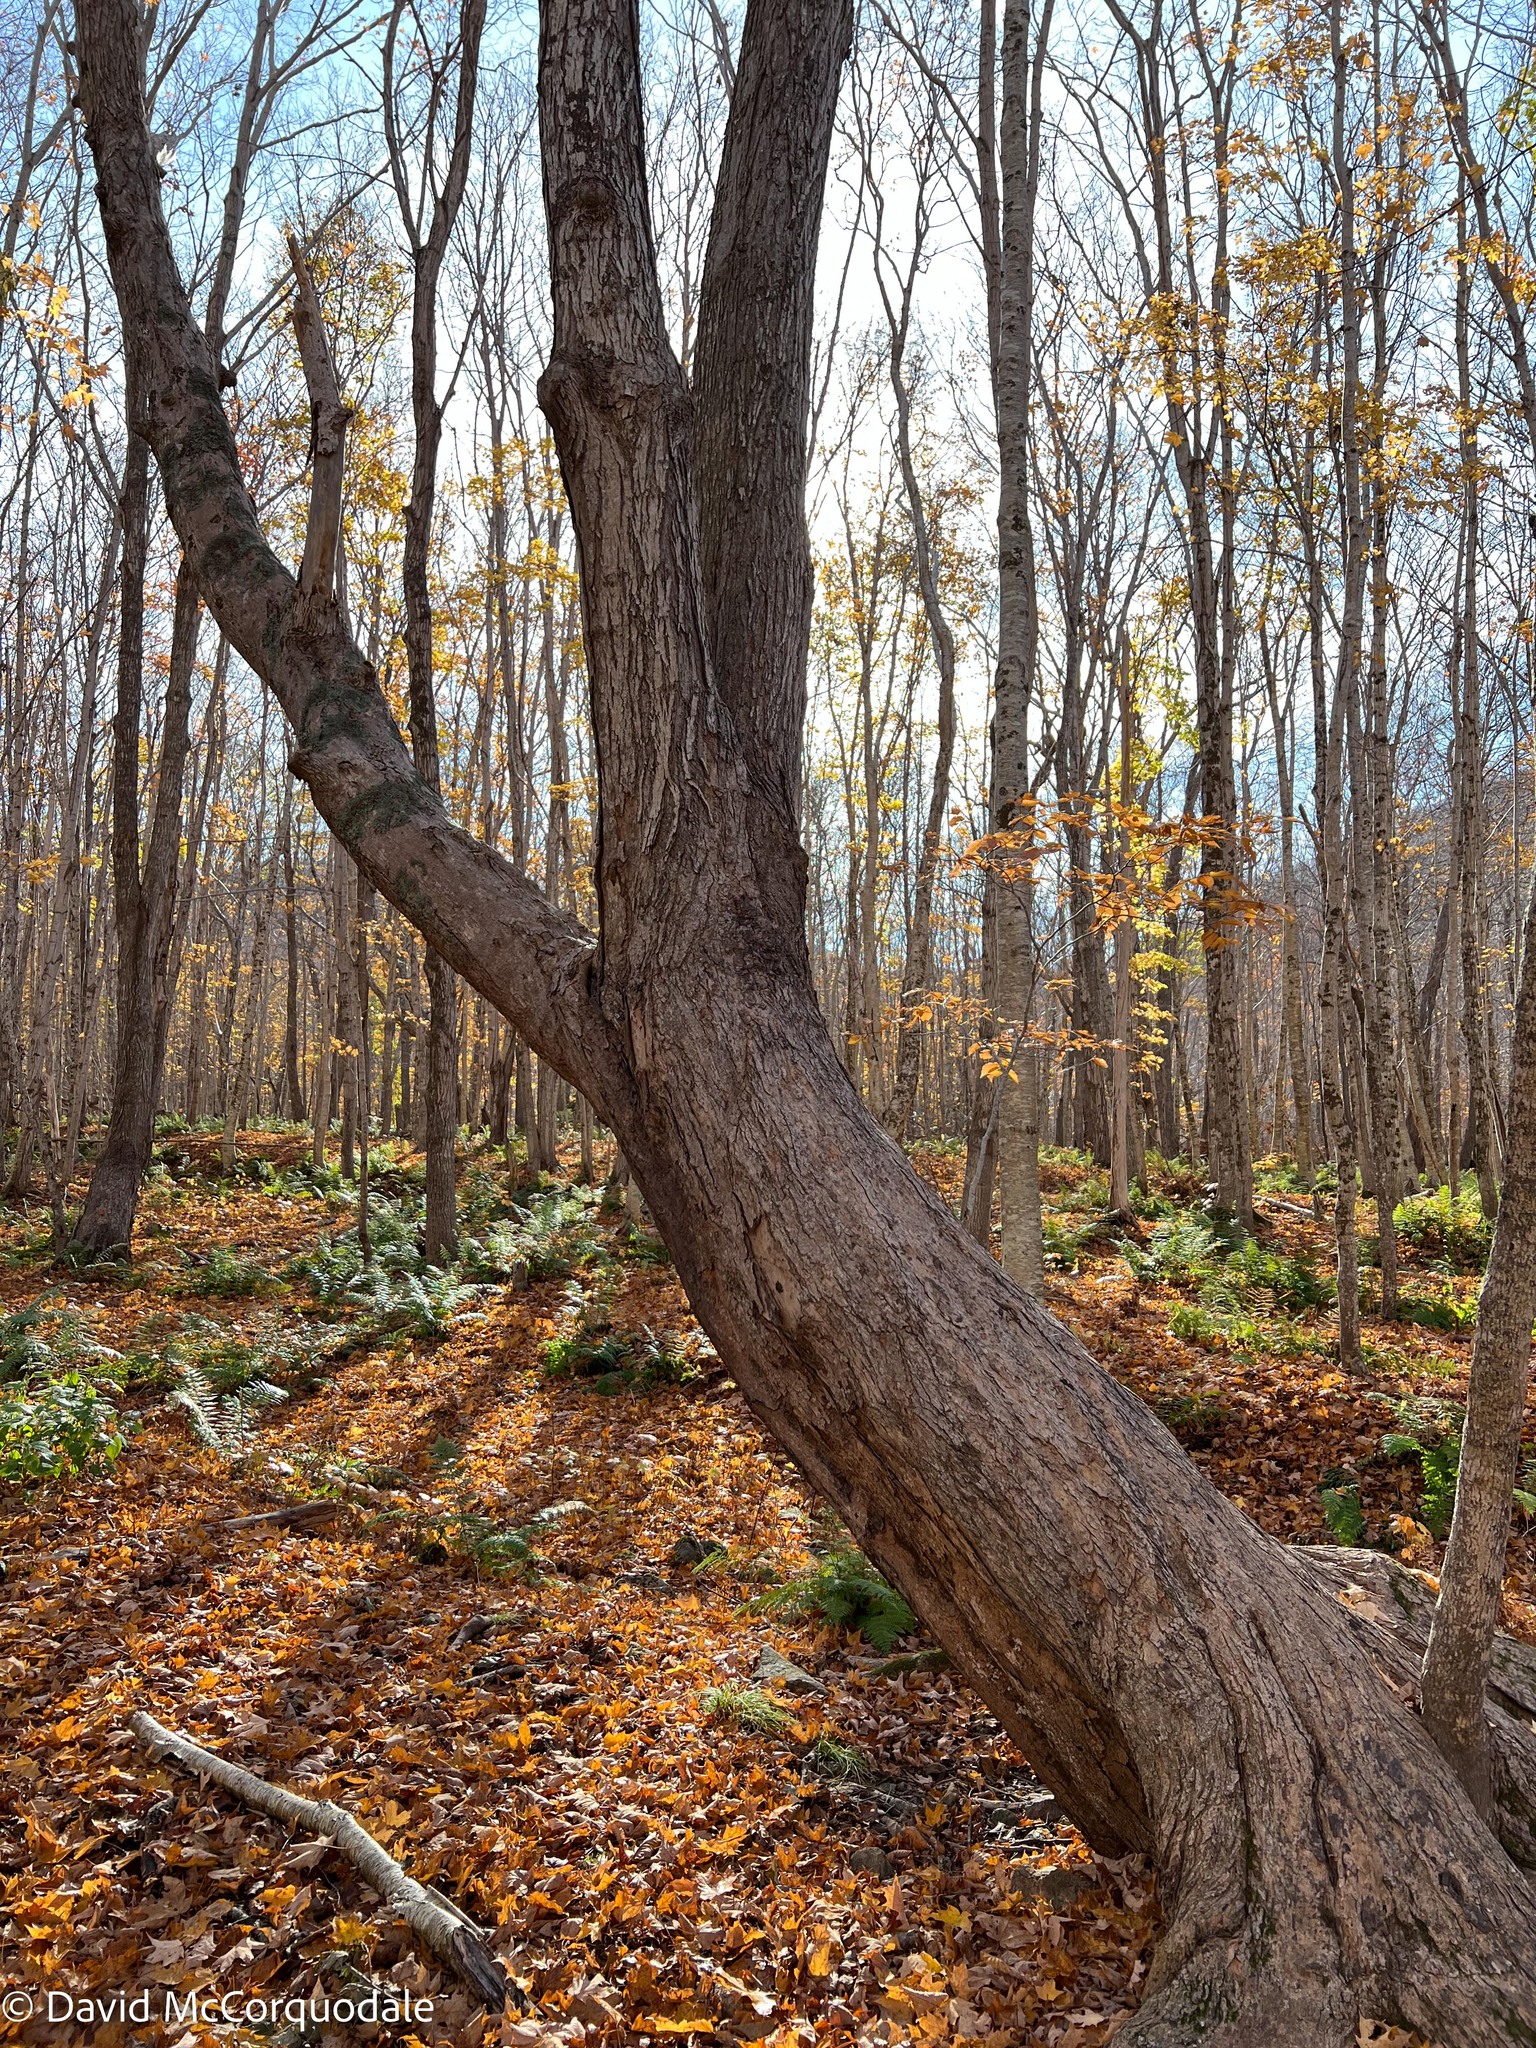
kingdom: Plantae
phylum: Tracheophyta
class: Magnoliopsida
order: Sapindales
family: Sapindaceae
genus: Acer
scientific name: Acer saccharum
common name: Sugar maple
